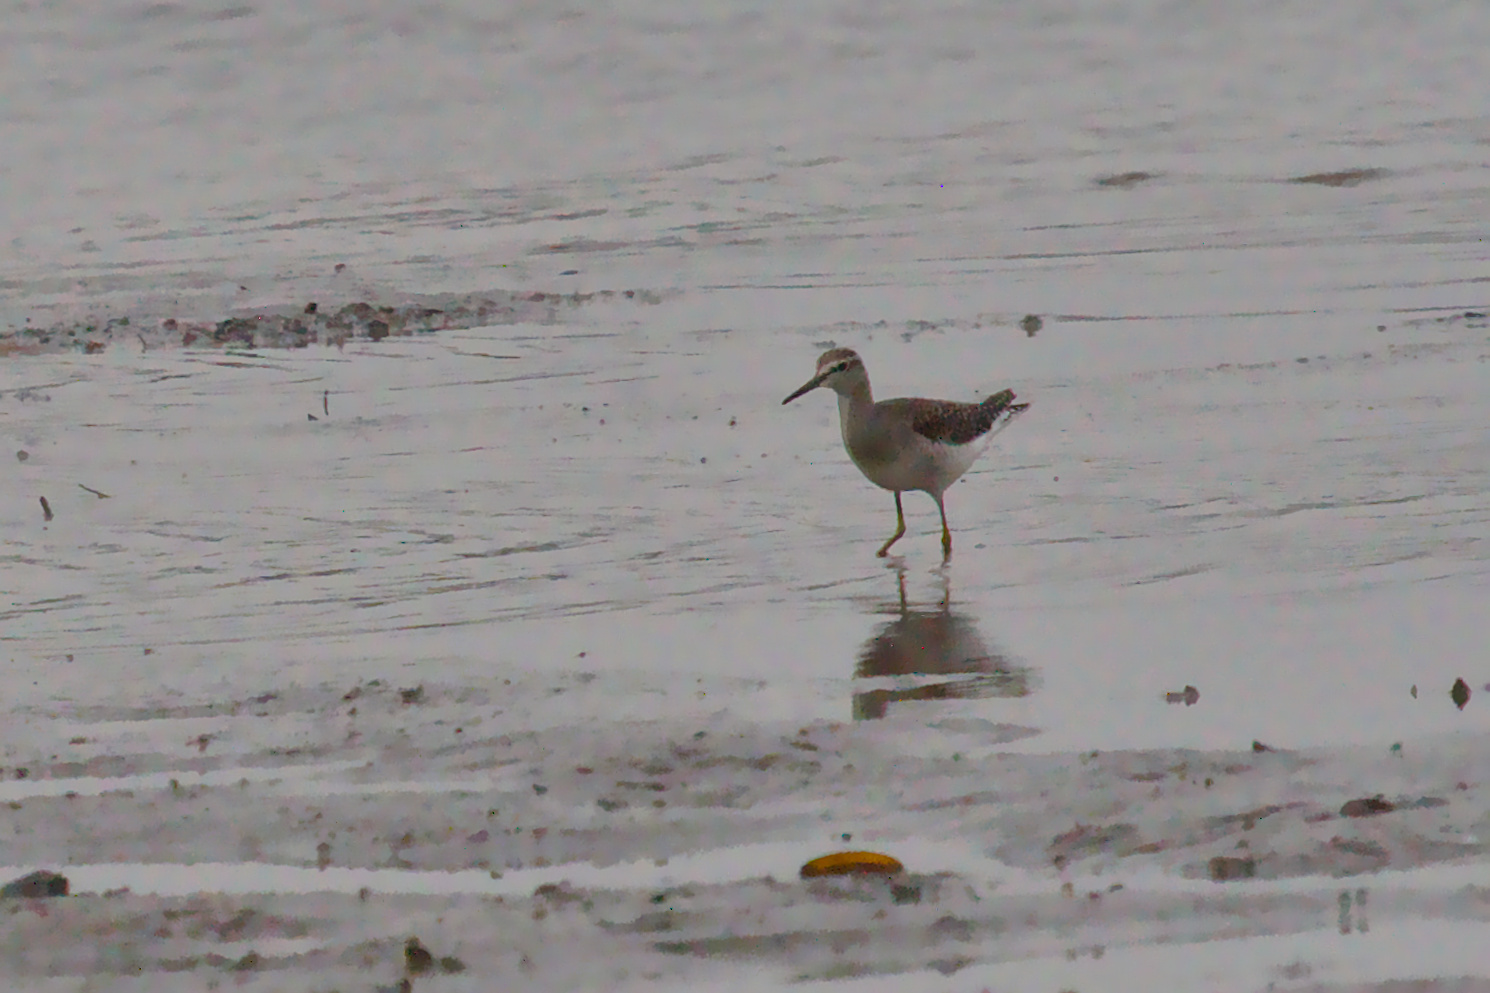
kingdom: Animalia
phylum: Chordata
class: Aves
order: Charadriiformes
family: Scolopacidae
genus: Tringa
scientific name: Tringa glareola
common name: Wood sandpiper
